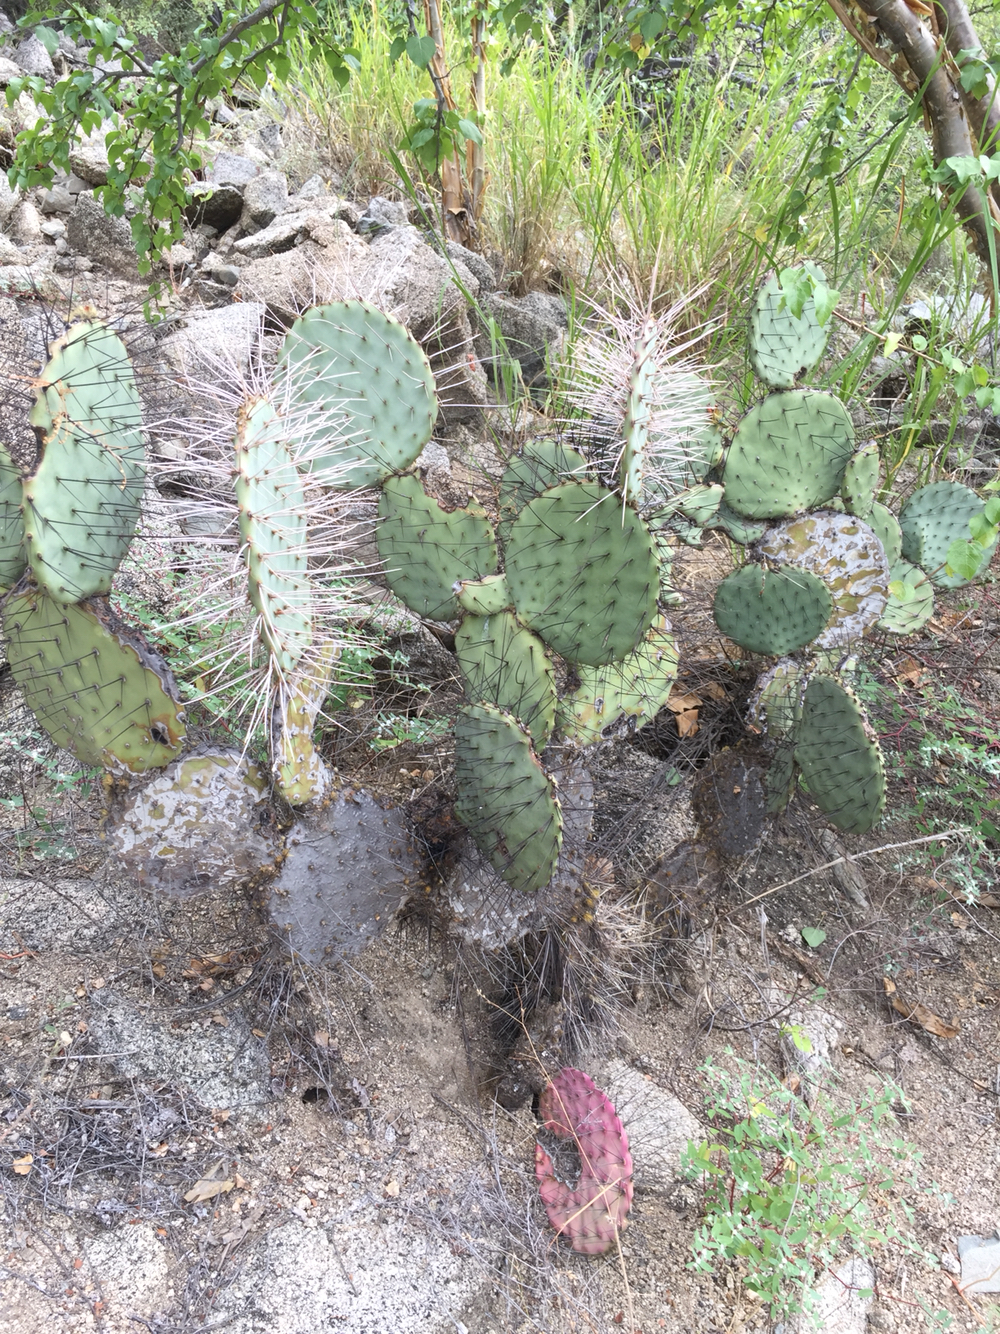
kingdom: Plantae
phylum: Tracheophyta
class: Magnoliopsida
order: Caryophyllales
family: Cactaceae
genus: Opuntia
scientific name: Opuntia gosseliniana
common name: Violet prickly-pear
